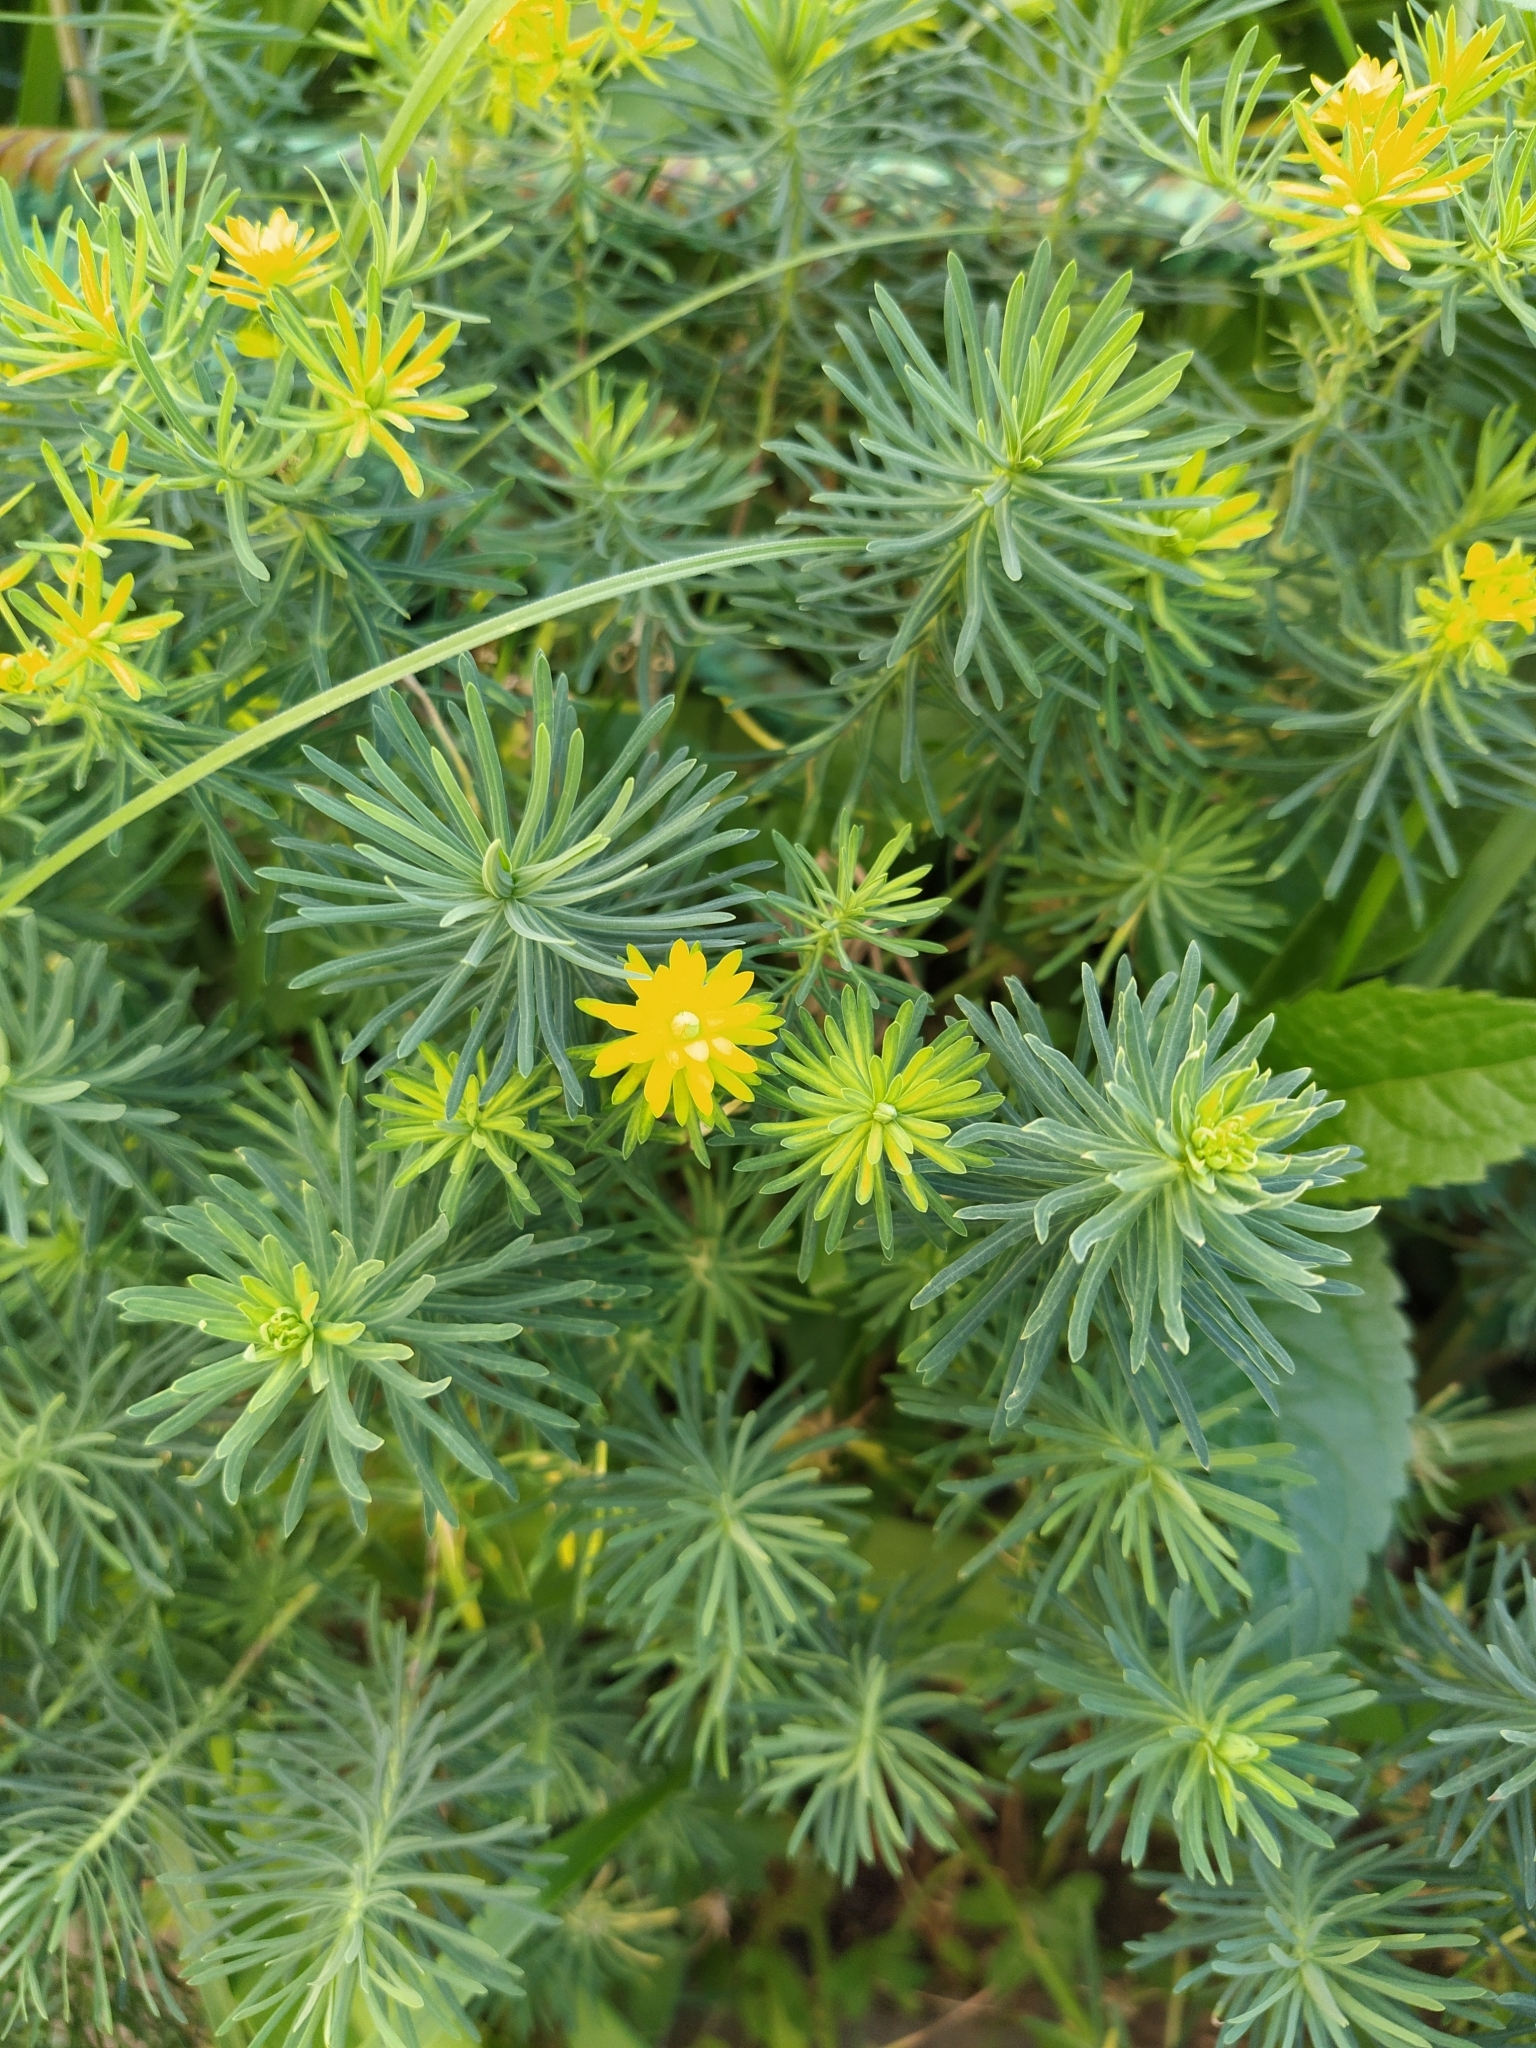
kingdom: Plantae
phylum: Tracheophyta
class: Magnoliopsida
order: Malpighiales
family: Euphorbiaceae
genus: Euphorbia
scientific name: Euphorbia cyparissias
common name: Cypress spurge
